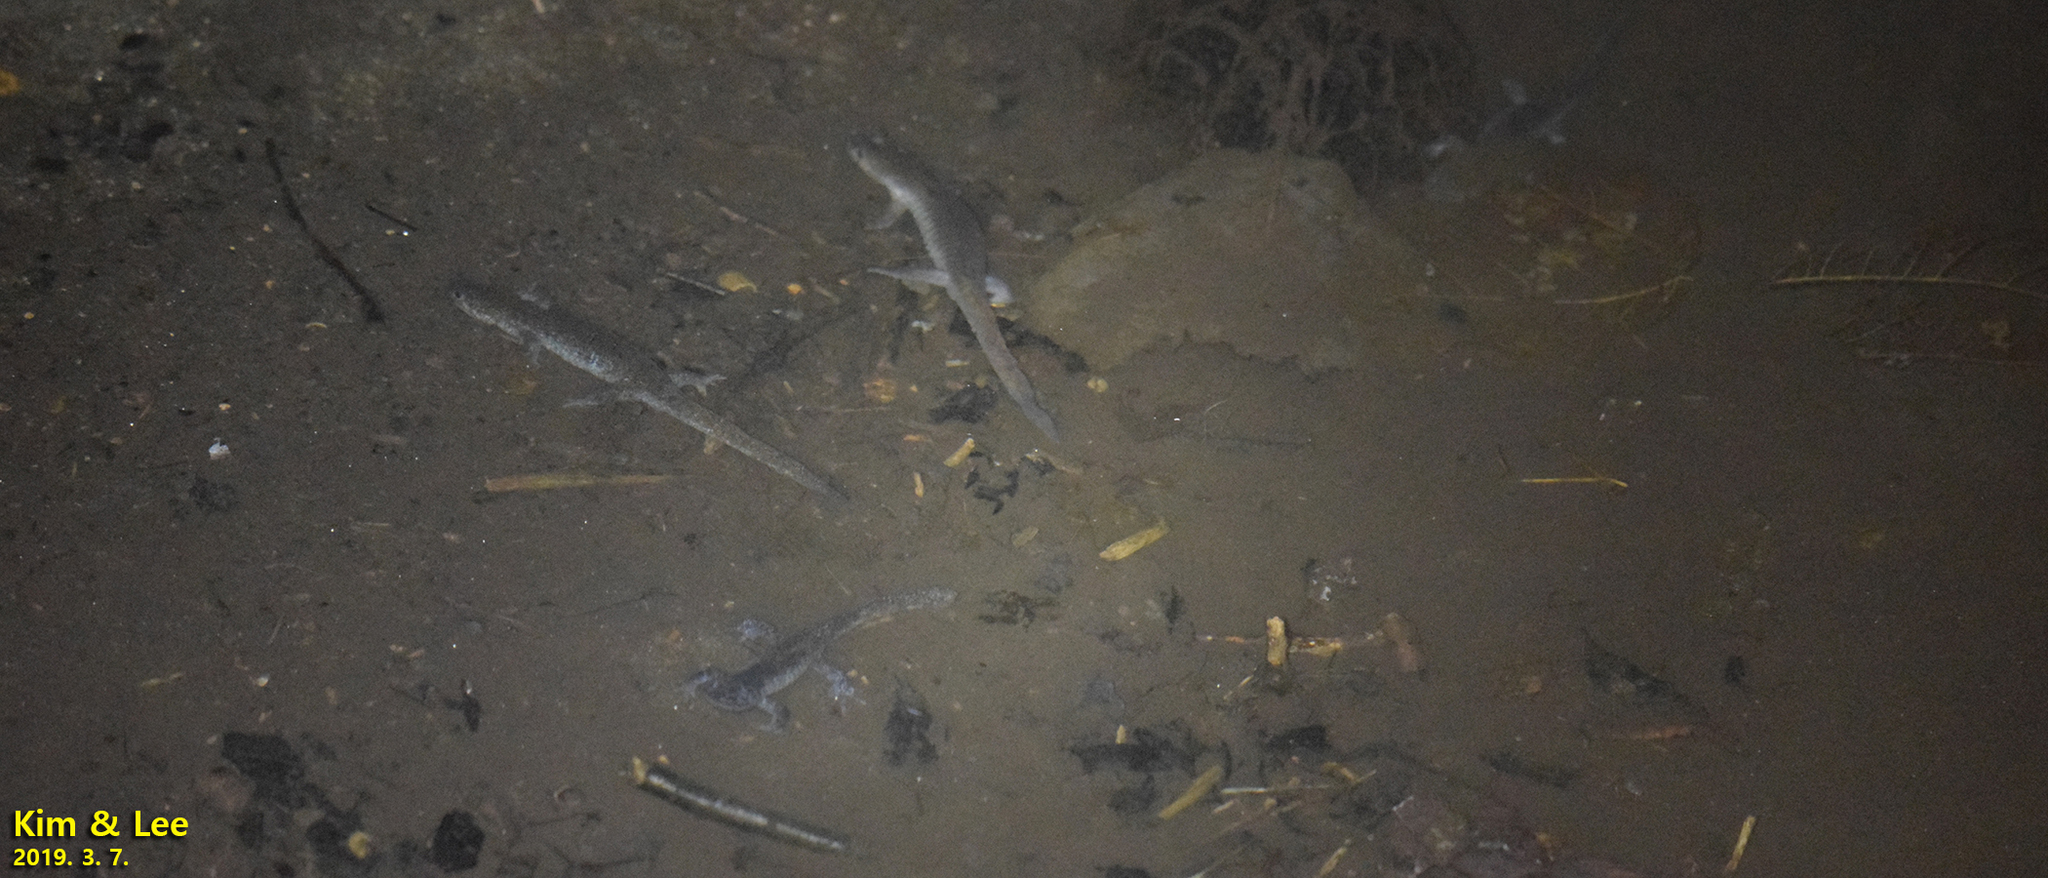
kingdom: Animalia
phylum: Chordata
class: Amphibia
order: Caudata
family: Hynobiidae
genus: Hynobius
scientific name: Hynobius leechii
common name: Gensan salamander
